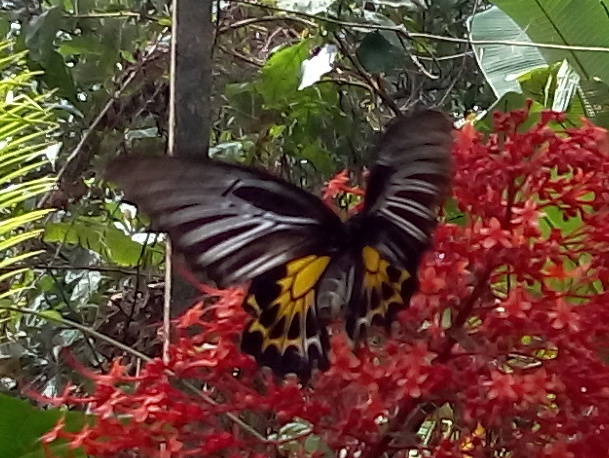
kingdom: Animalia
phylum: Arthropoda
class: Insecta
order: Lepidoptera
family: Papilionidae
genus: Troides
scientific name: Troides minos
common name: Malabar birdwing
